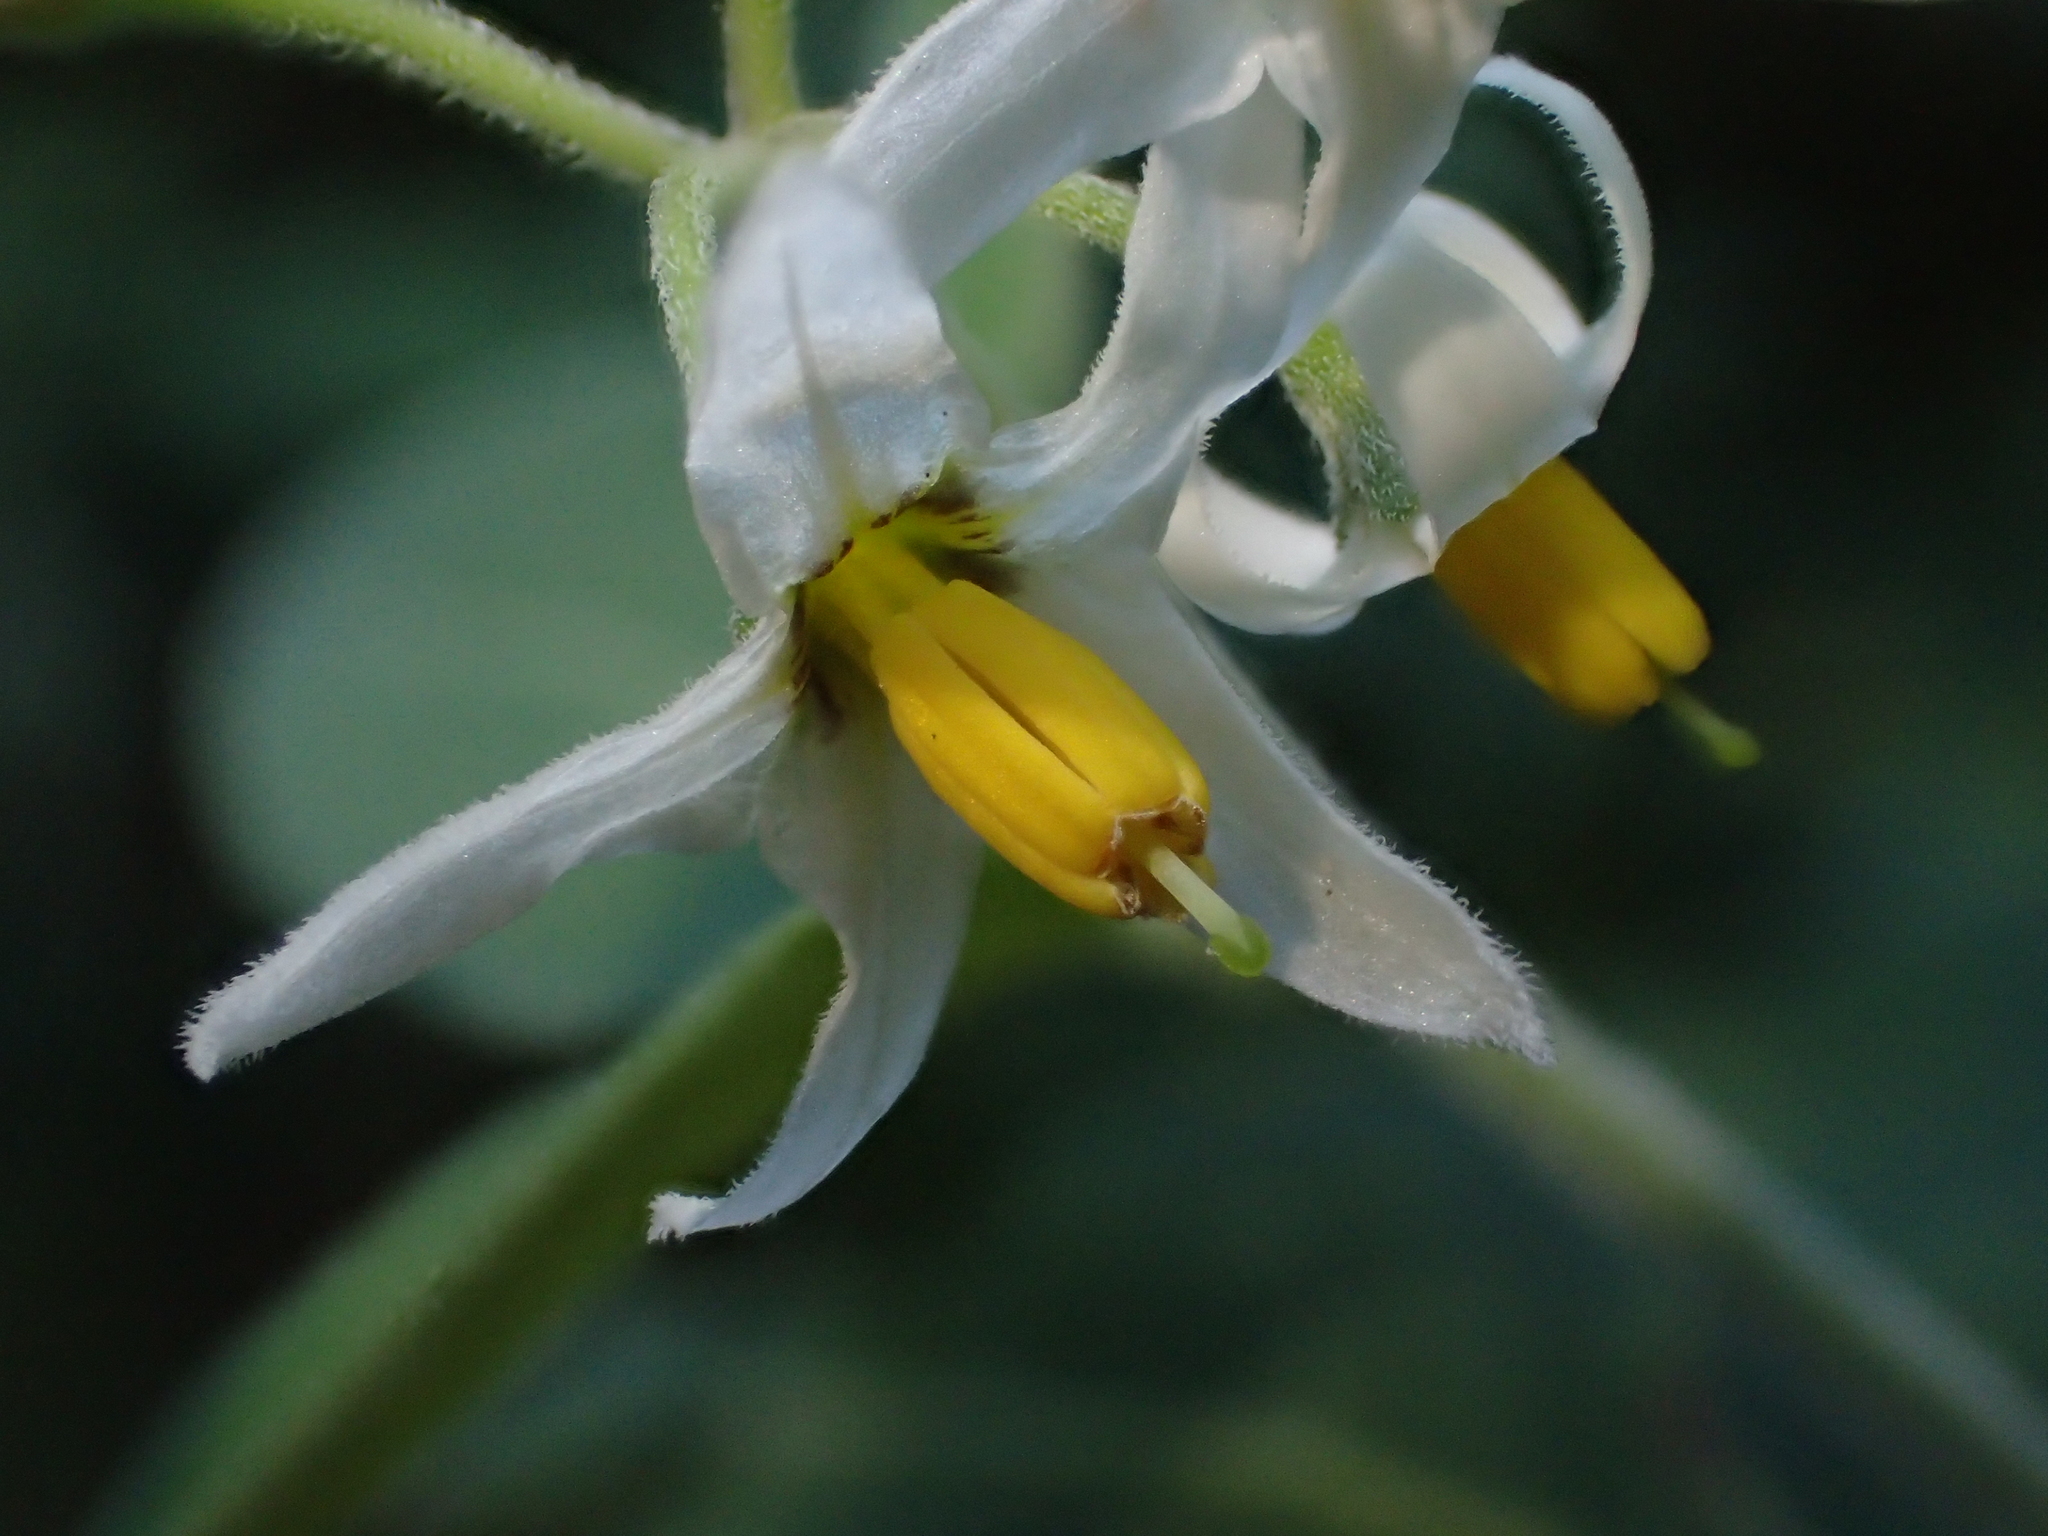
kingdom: Plantae
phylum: Tracheophyta
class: Magnoliopsida
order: Solanales
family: Solanaceae
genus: Solanum
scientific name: Solanum chenopodioides
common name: Tall nightshade
